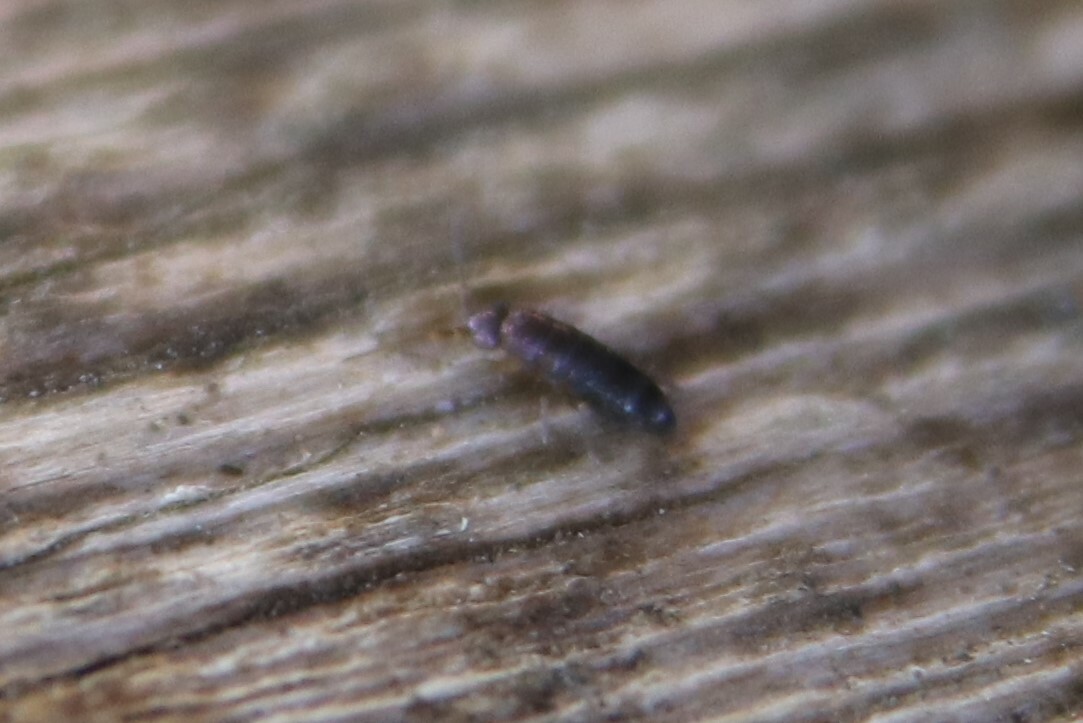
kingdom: Animalia
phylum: Arthropoda
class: Collembola
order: Entomobryomorpha
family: Tomoceridae
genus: Tomocerus
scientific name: Tomocerus vulgaris
